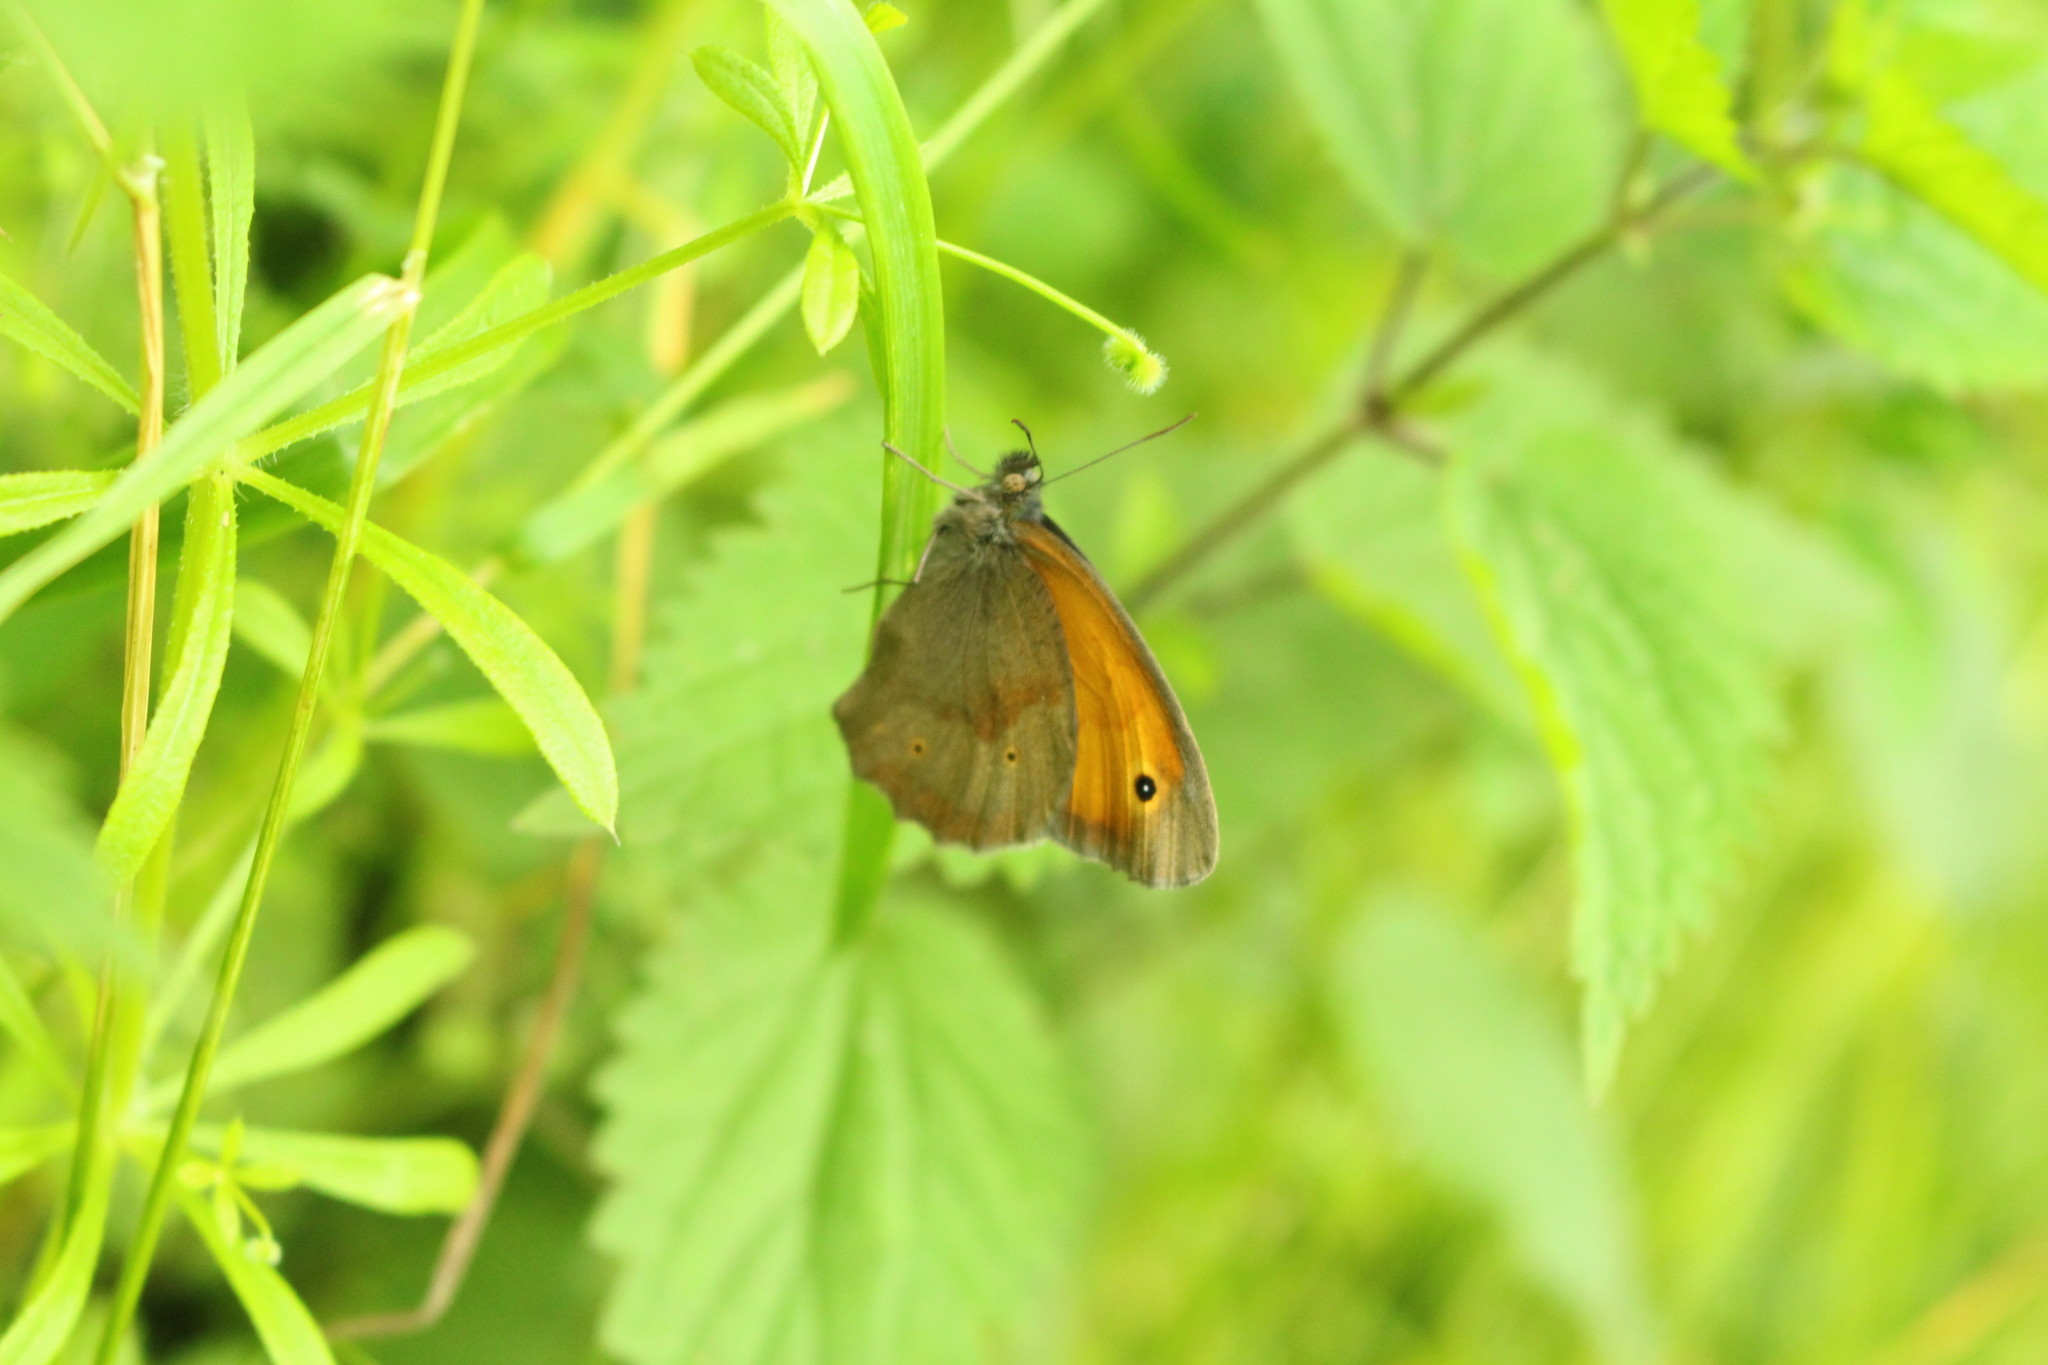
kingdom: Animalia
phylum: Arthropoda
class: Insecta
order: Lepidoptera
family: Nymphalidae
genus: Maniola
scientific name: Maniola jurtina
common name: Meadow brown
